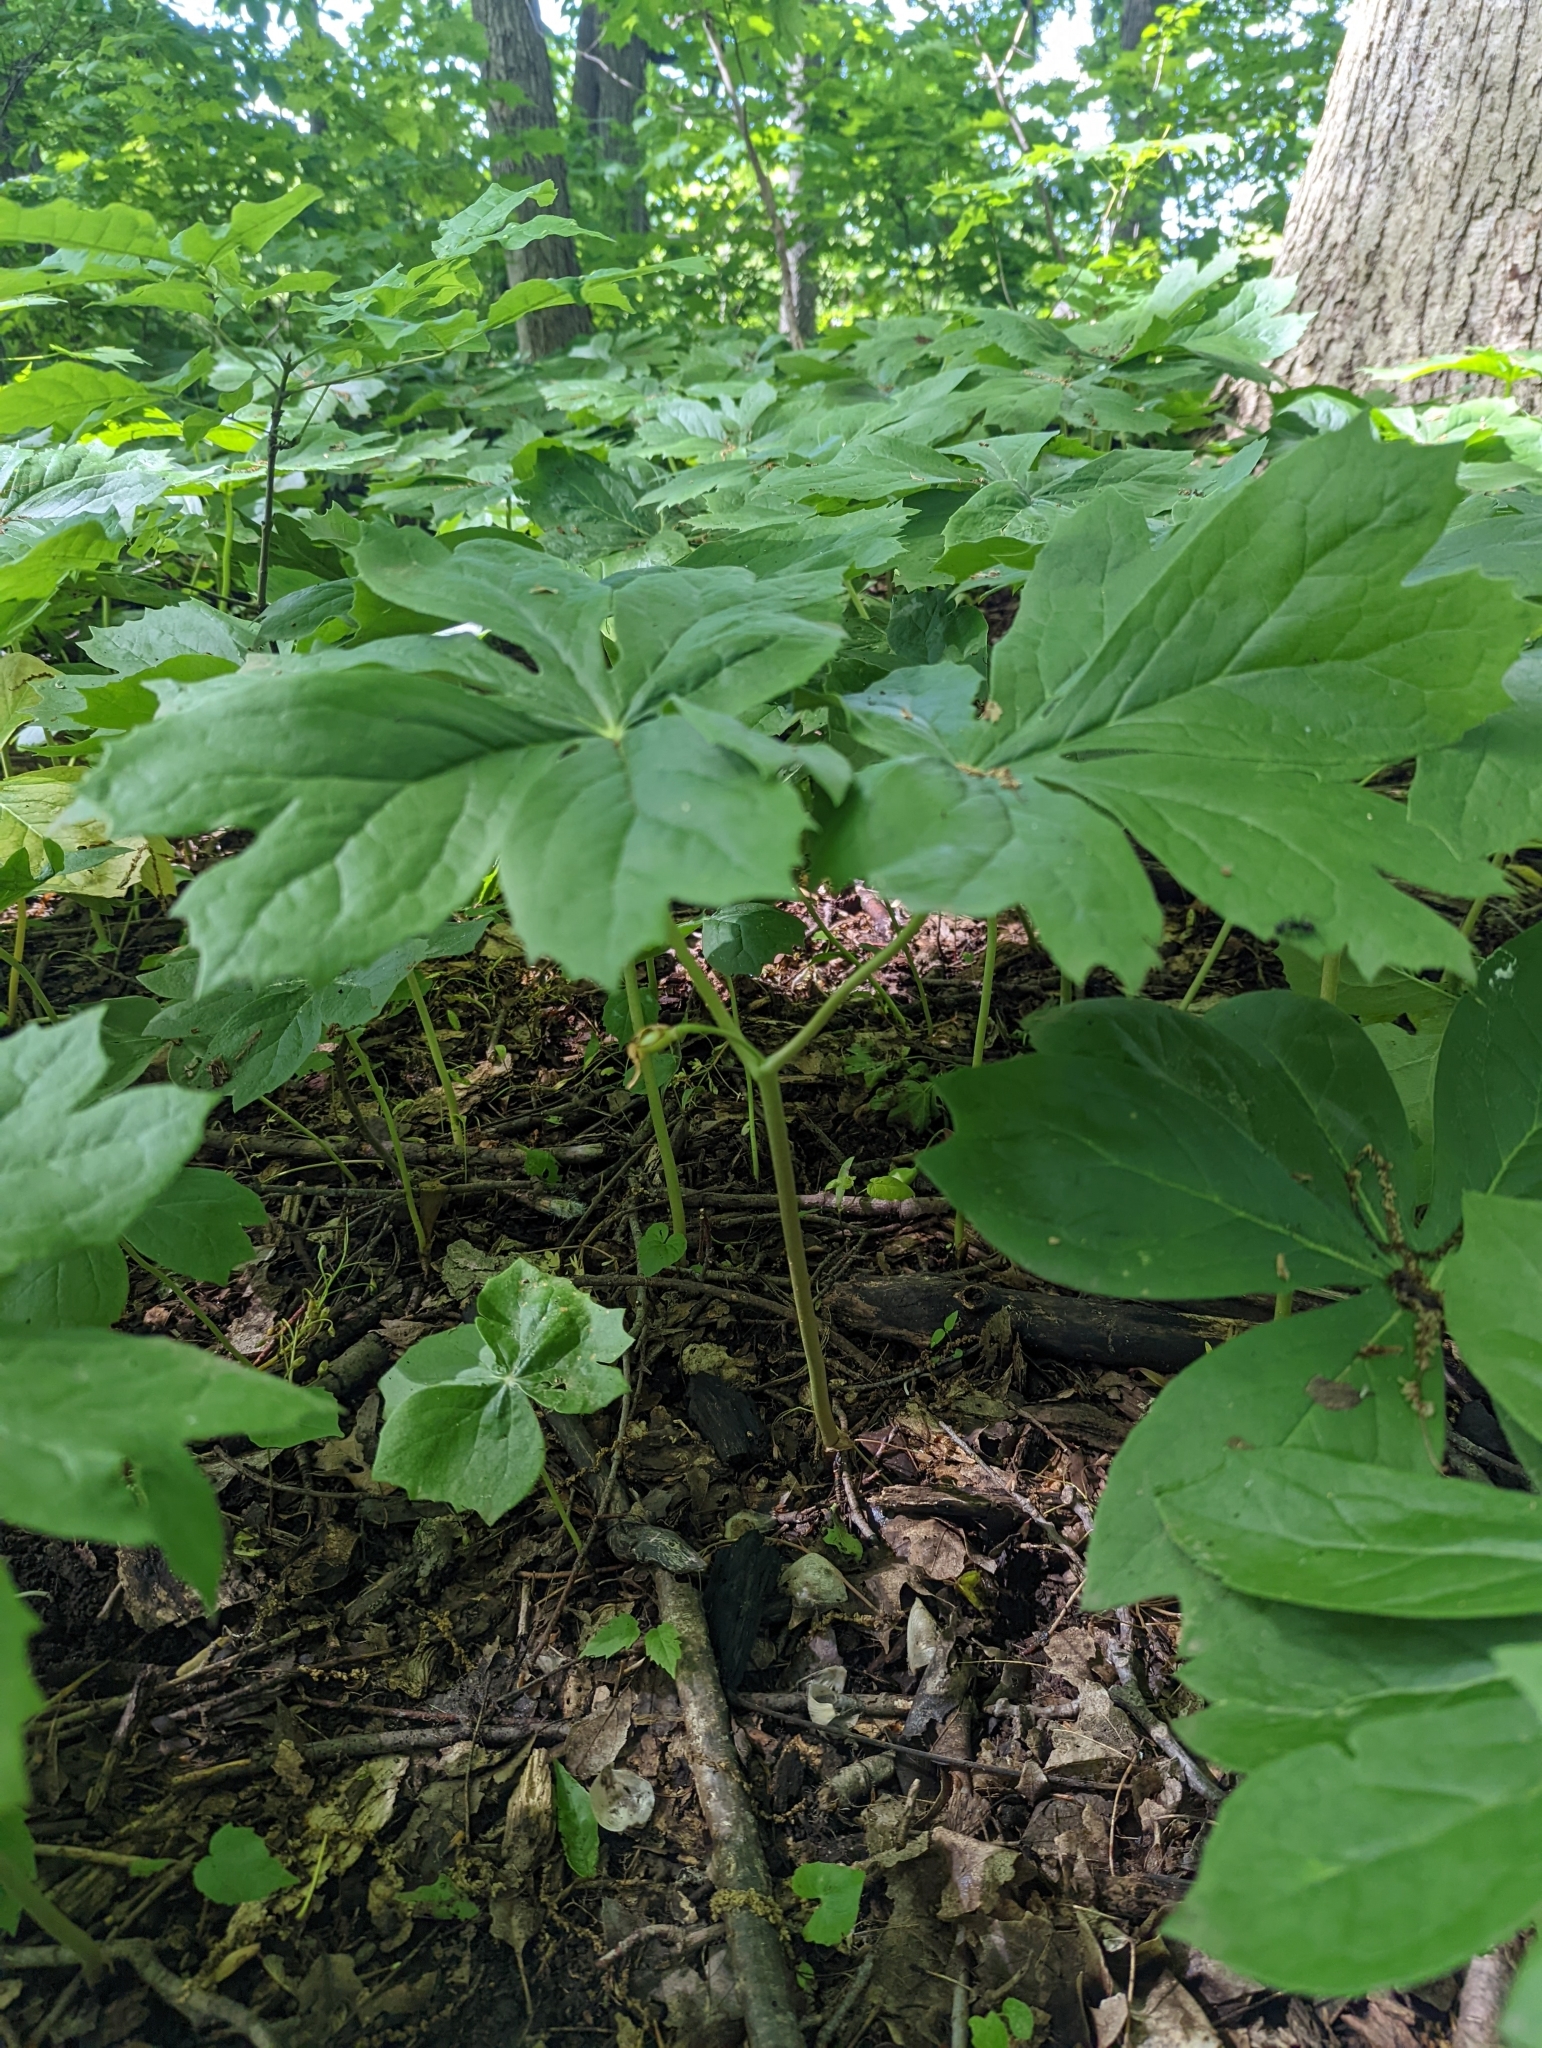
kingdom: Plantae
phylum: Tracheophyta
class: Magnoliopsida
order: Ranunculales
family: Berberidaceae
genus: Podophyllum
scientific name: Podophyllum peltatum
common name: Wild mandrake
